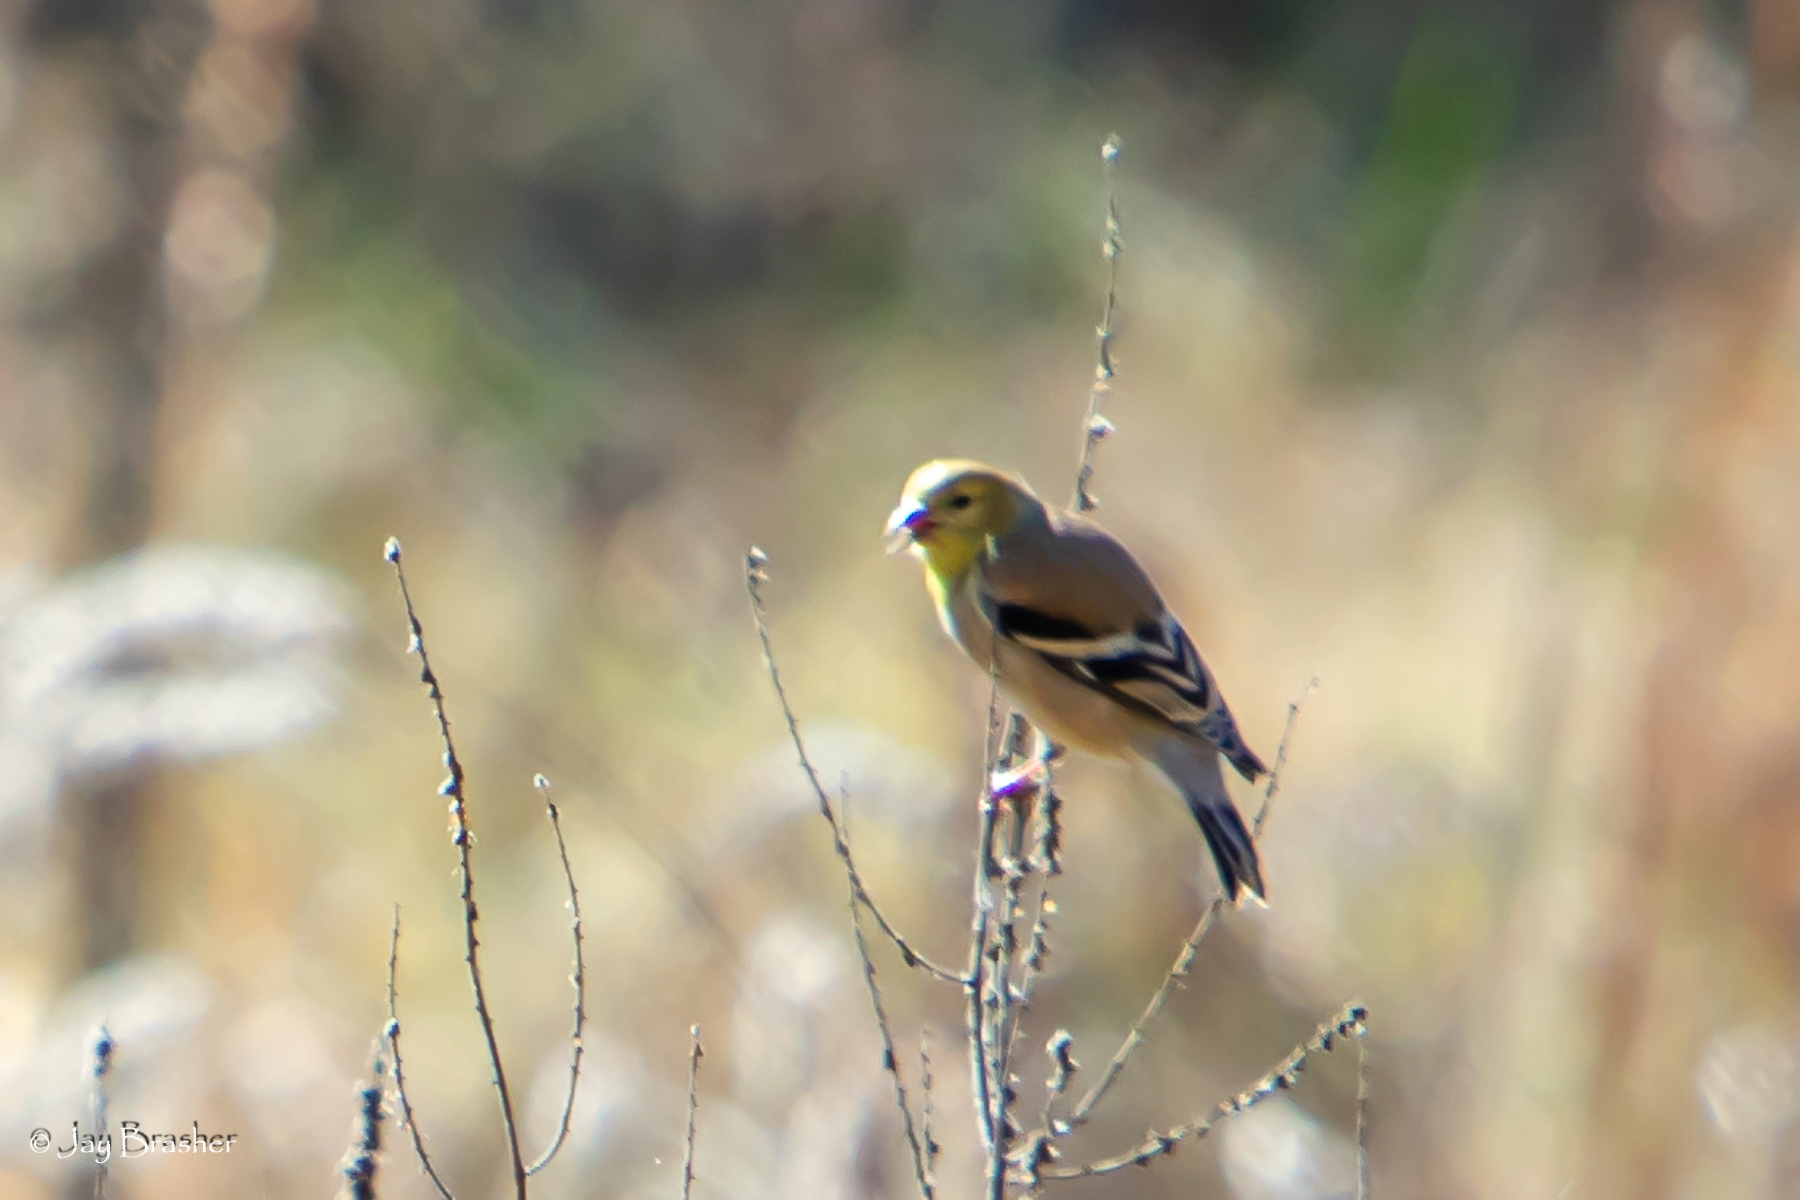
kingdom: Animalia
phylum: Chordata
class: Aves
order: Passeriformes
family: Fringillidae
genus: Spinus
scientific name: Spinus tristis
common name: American goldfinch
